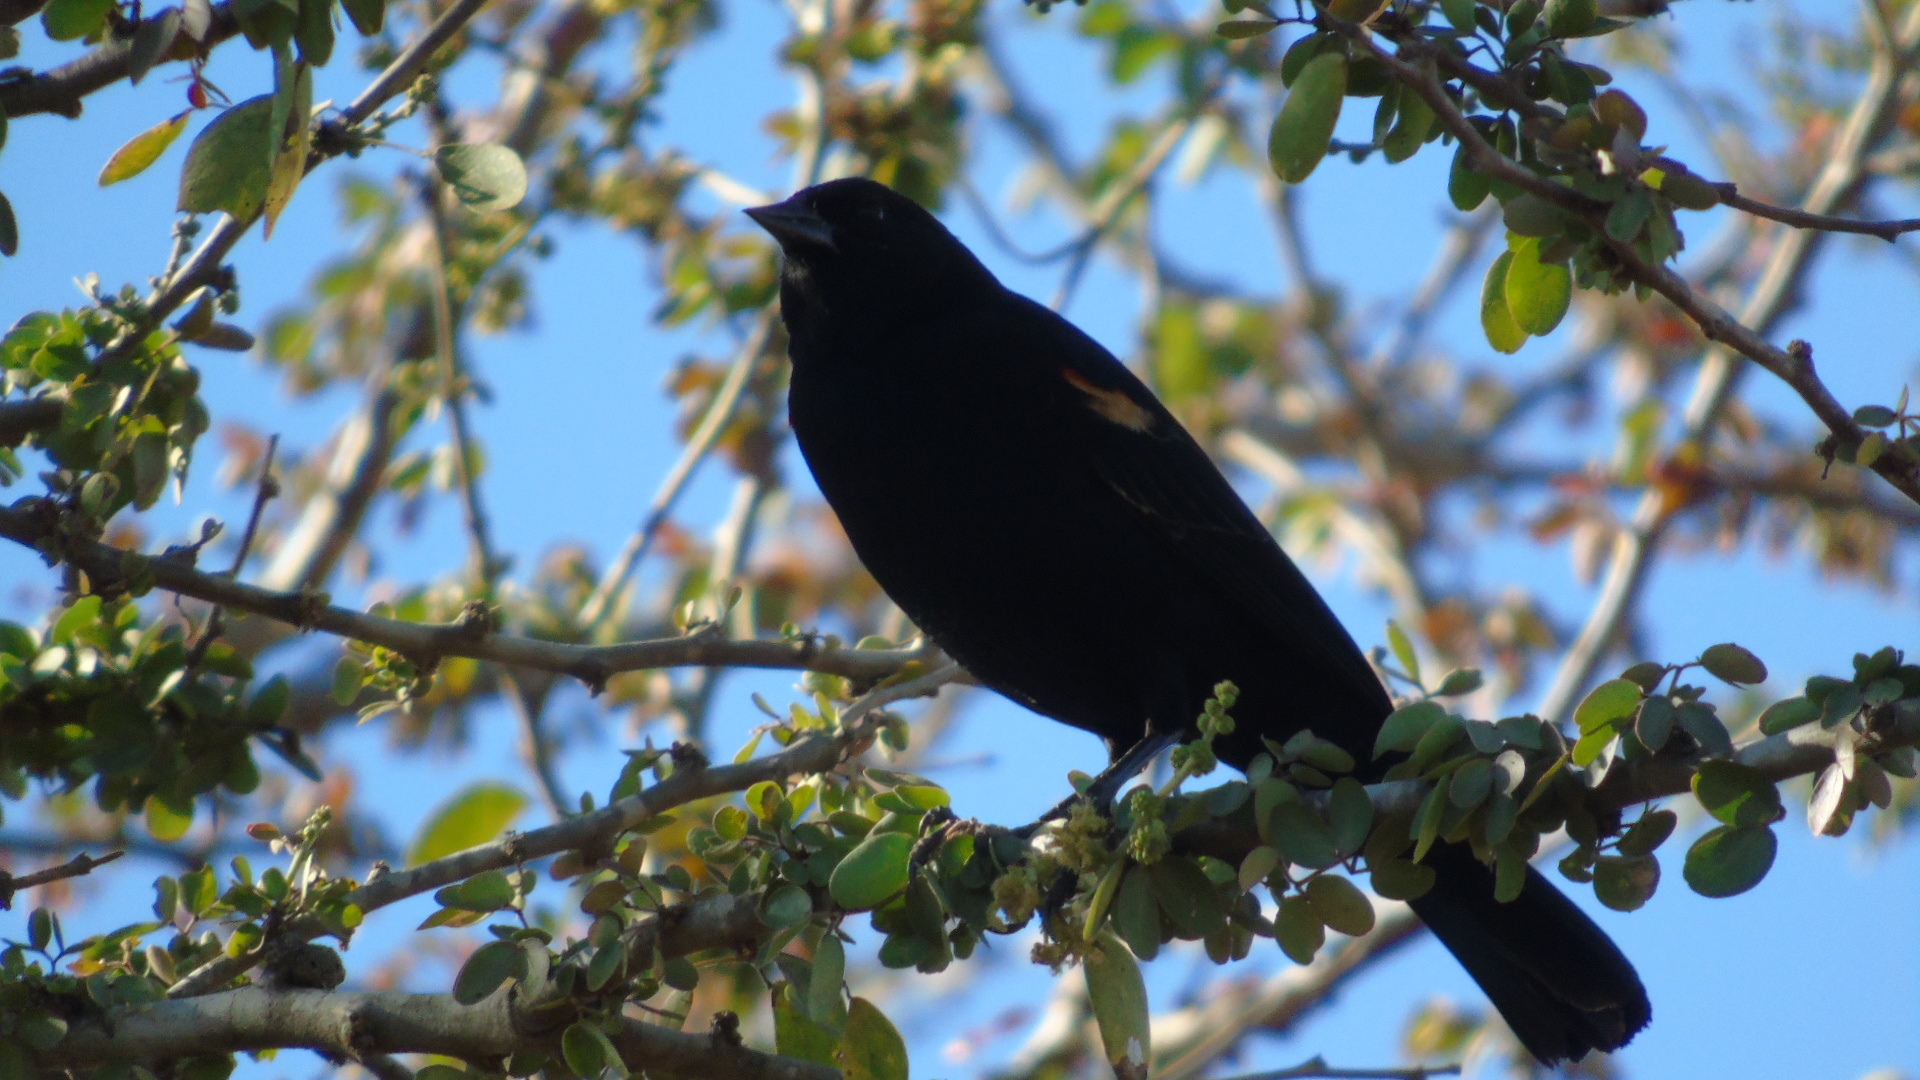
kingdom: Animalia
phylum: Chordata
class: Aves
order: Passeriformes
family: Icteridae
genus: Agelaius
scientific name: Agelaius phoeniceus
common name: Red-winged blackbird
